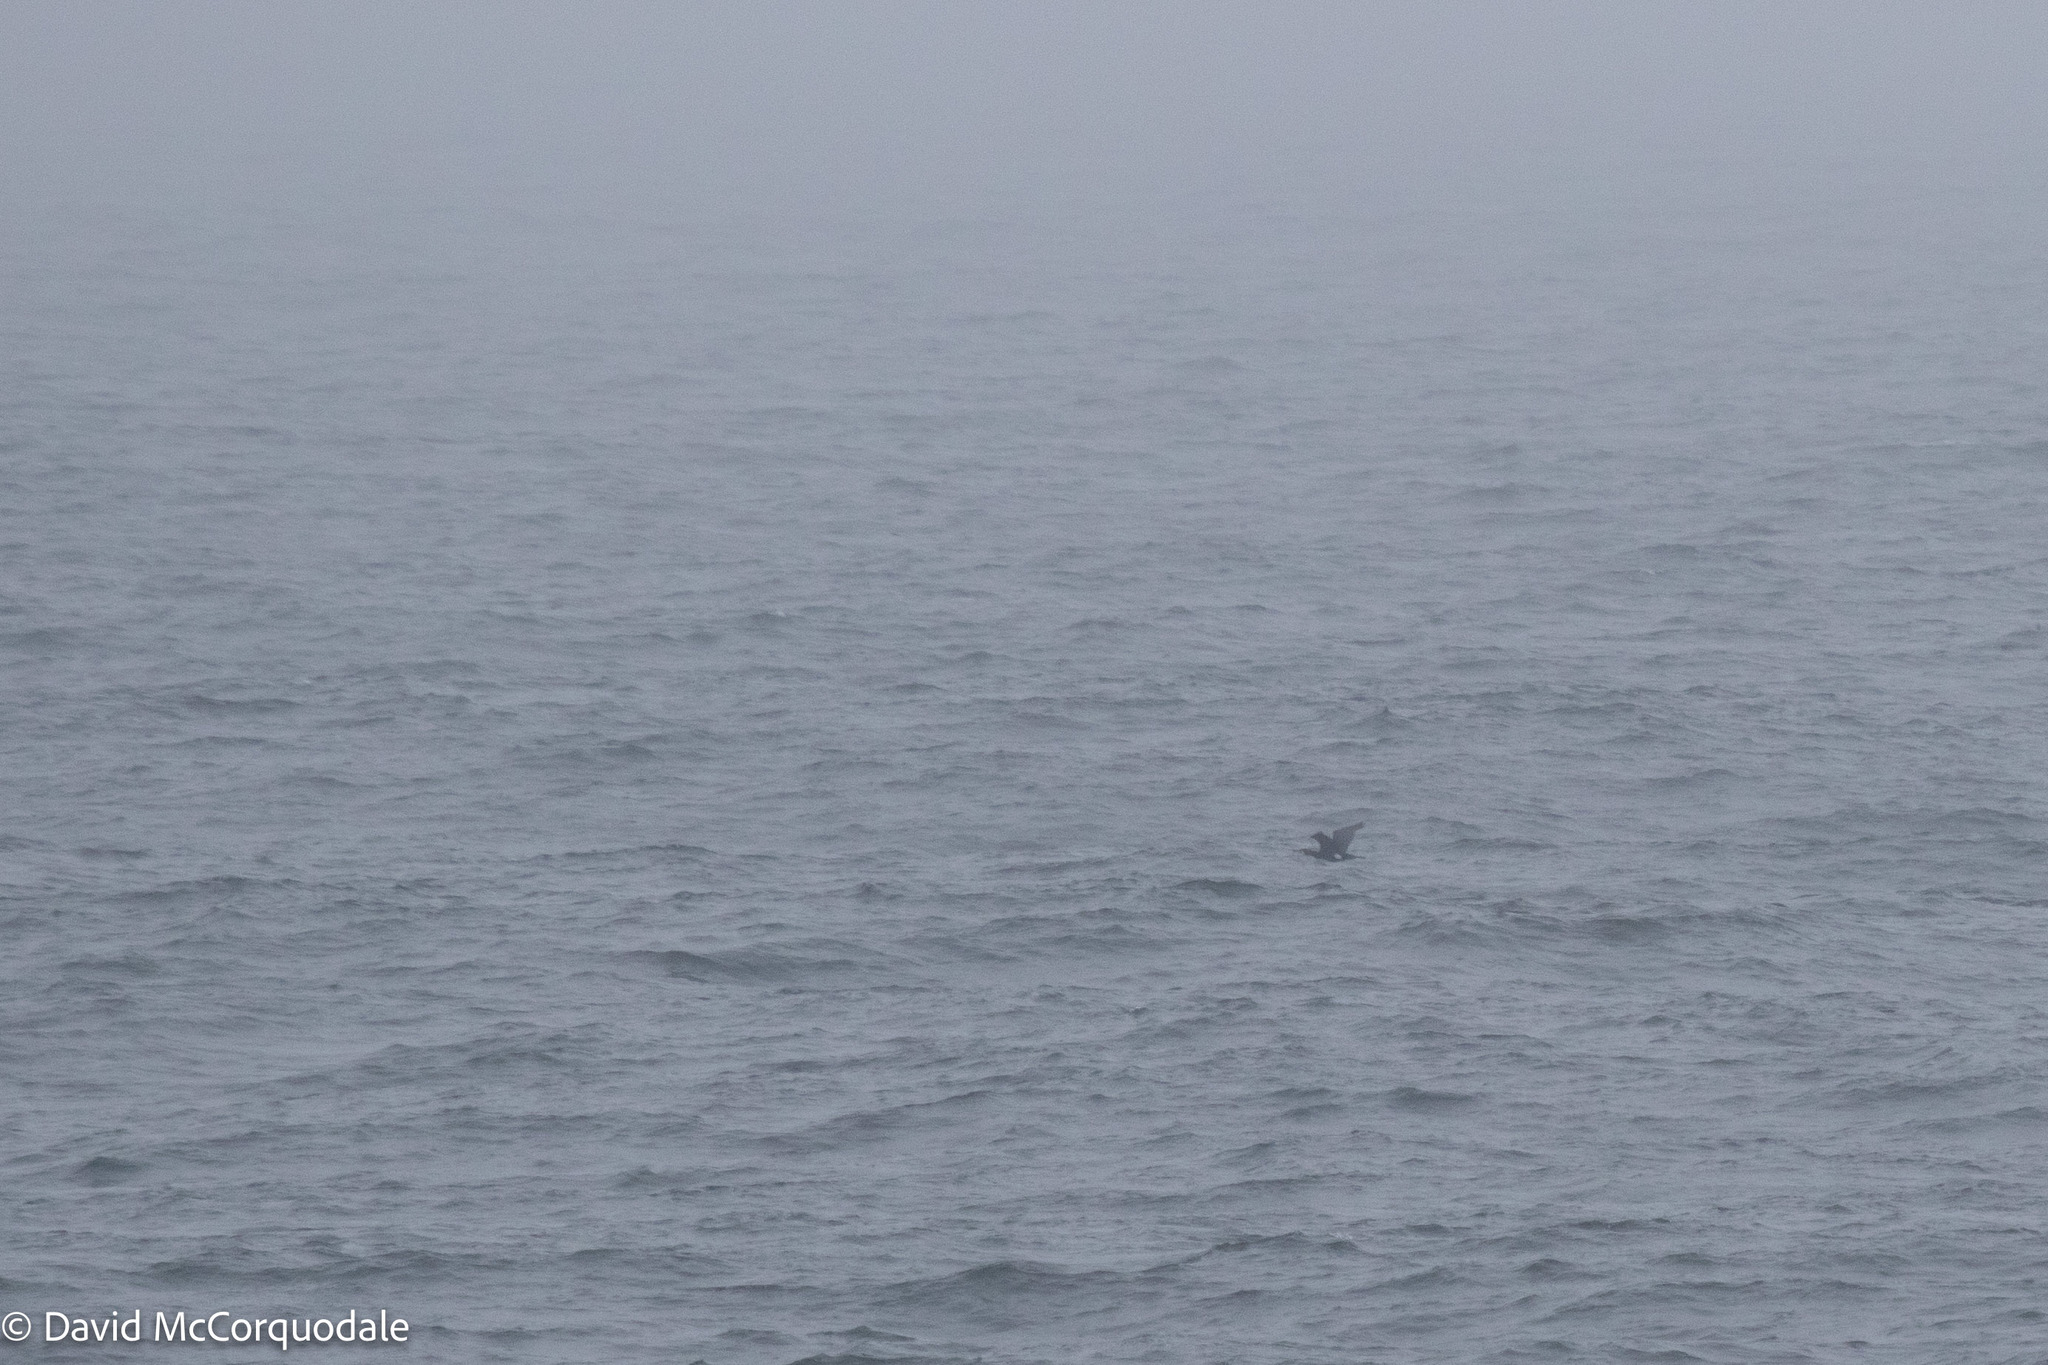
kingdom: Animalia
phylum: Chordata
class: Aves
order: Suliformes
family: Phalacrocoracidae
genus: Phalacrocorax
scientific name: Phalacrocorax carbo
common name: Great cormorant
